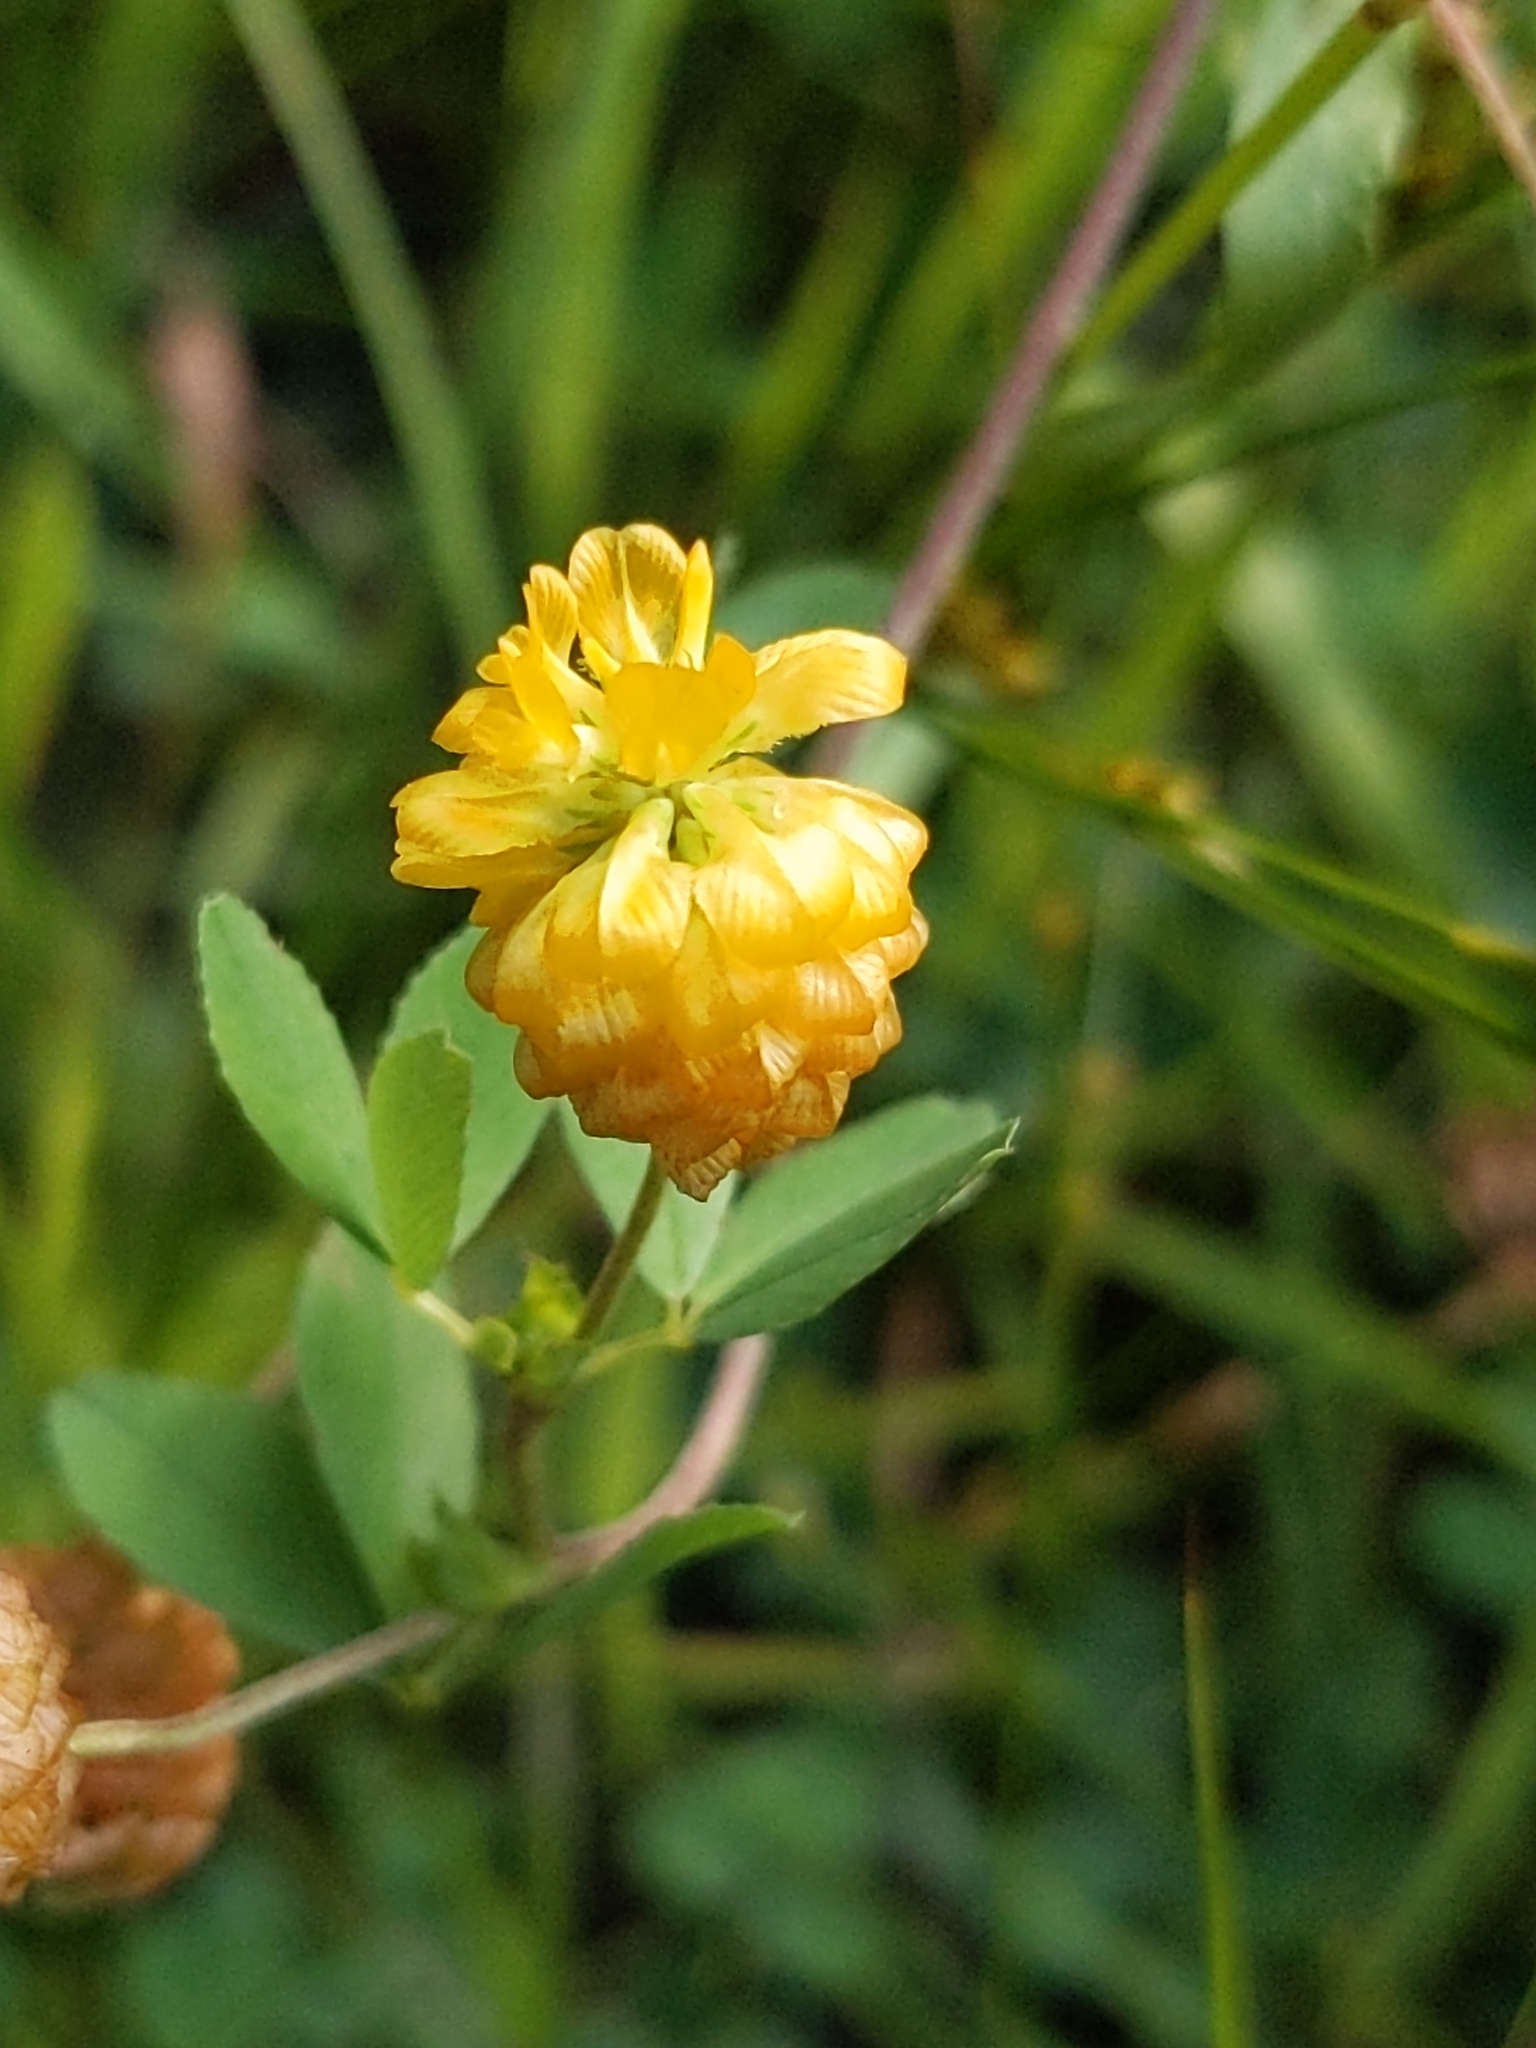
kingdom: Plantae
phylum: Tracheophyta
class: Magnoliopsida
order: Fabales
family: Fabaceae
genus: Trifolium
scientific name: Trifolium aureum
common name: Golden clover
